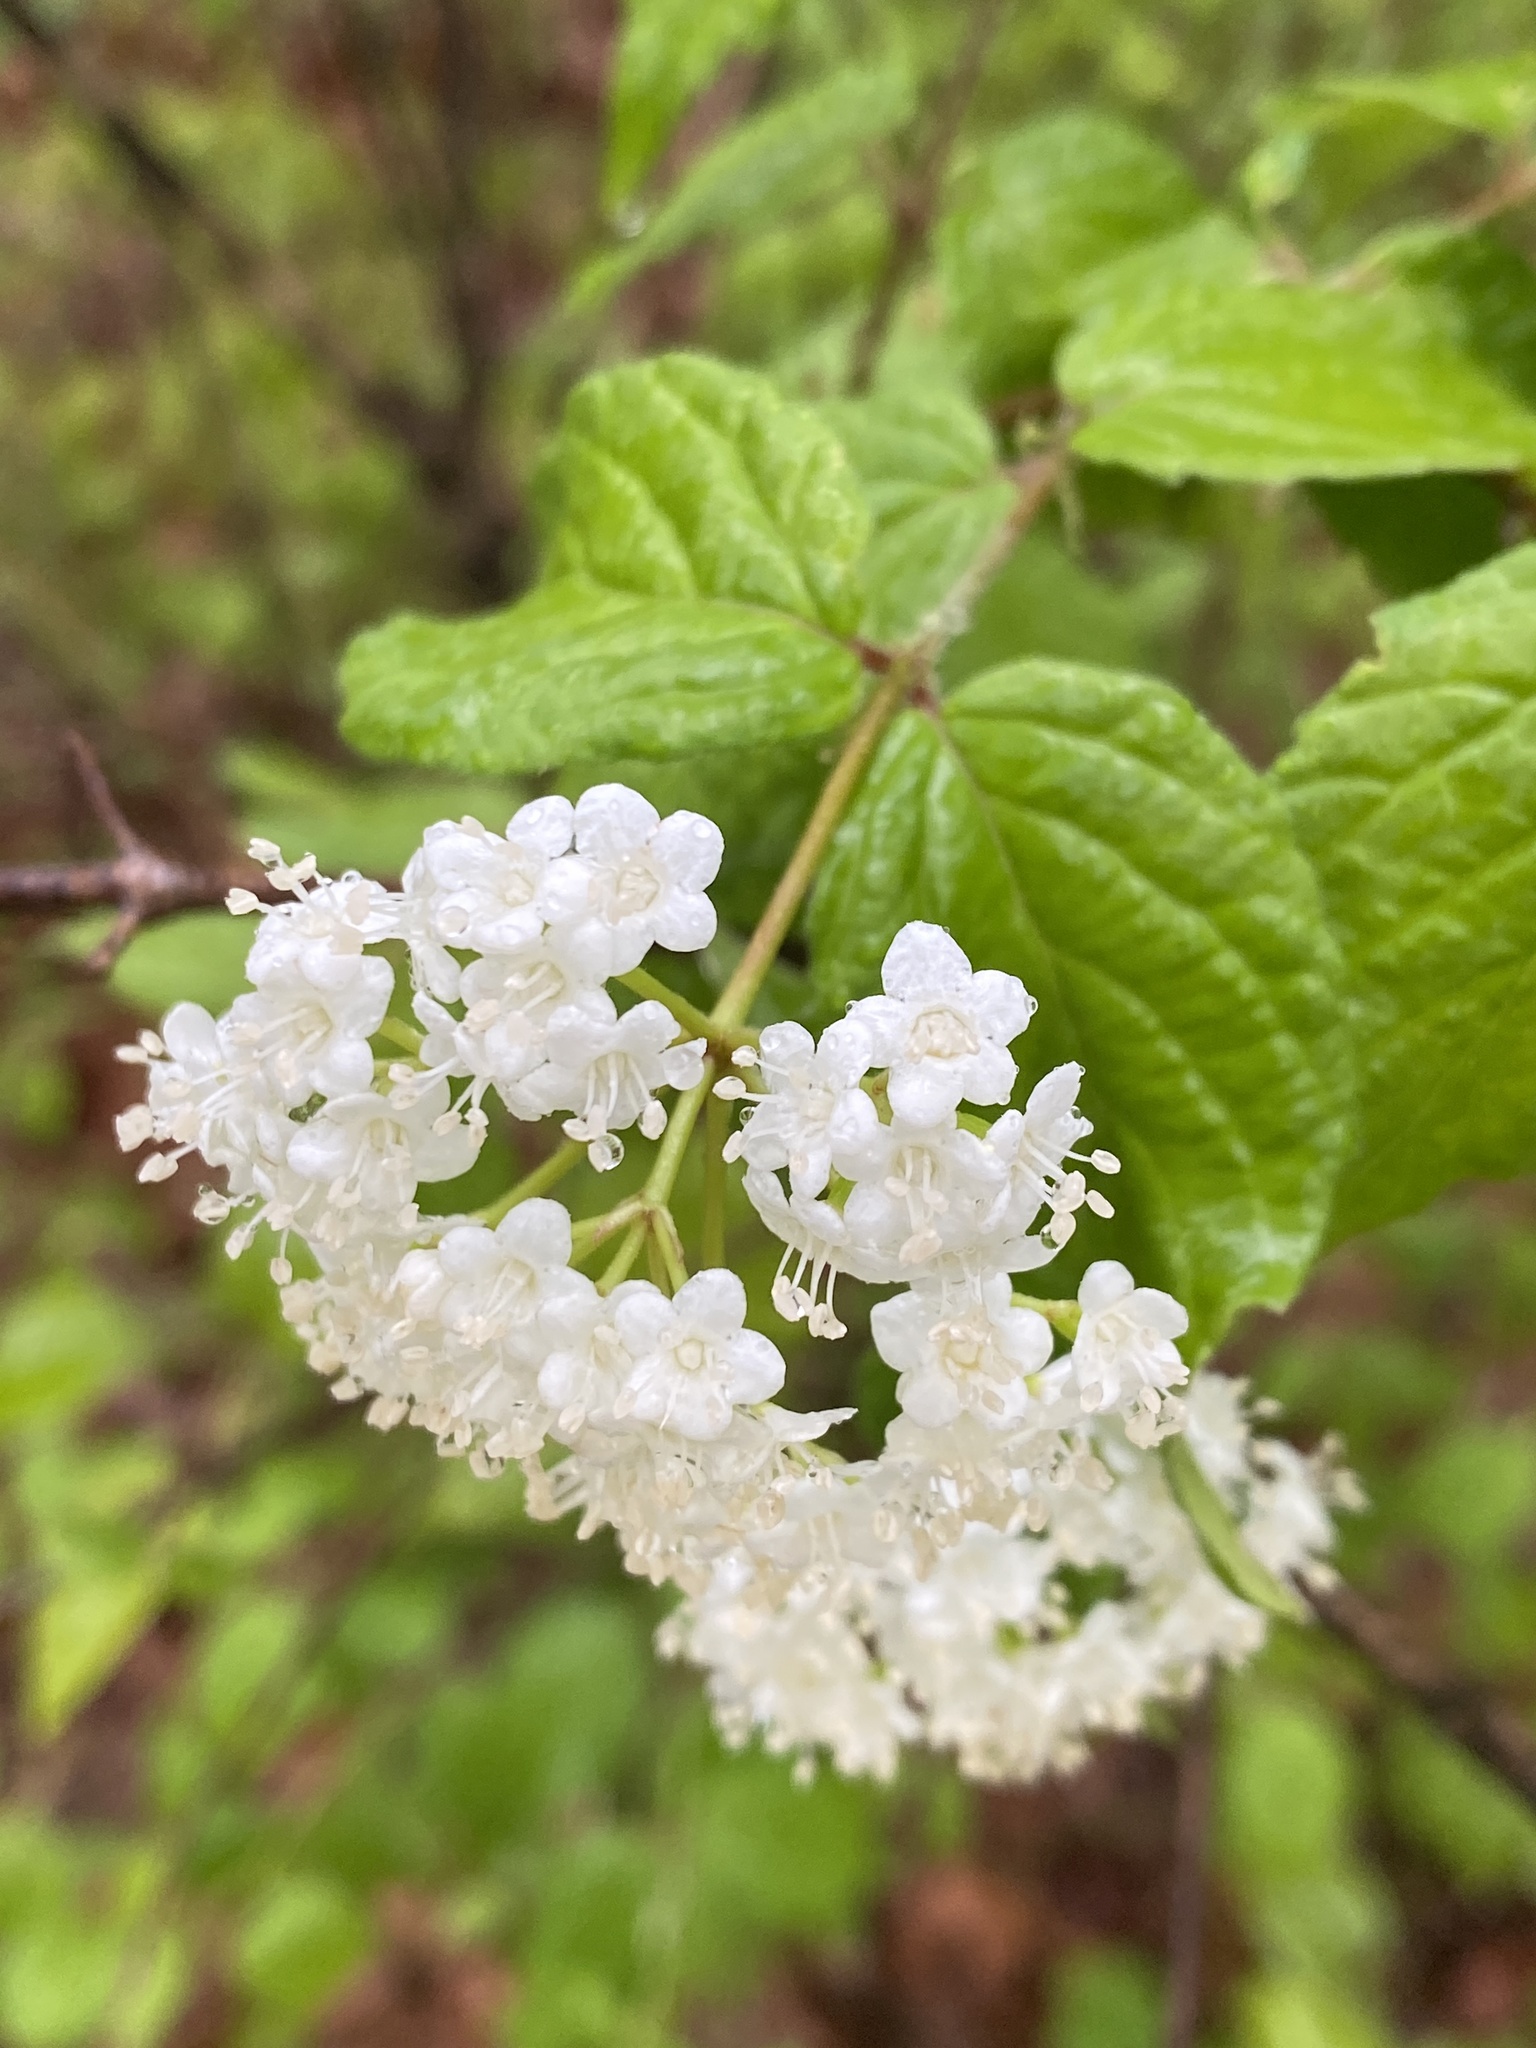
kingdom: Plantae
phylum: Tracheophyta
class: Magnoliopsida
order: Dipsacales
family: Viburnaceae
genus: Viburnum
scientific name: Viburnum rafinesqueanum
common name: Downy arrow-wood
